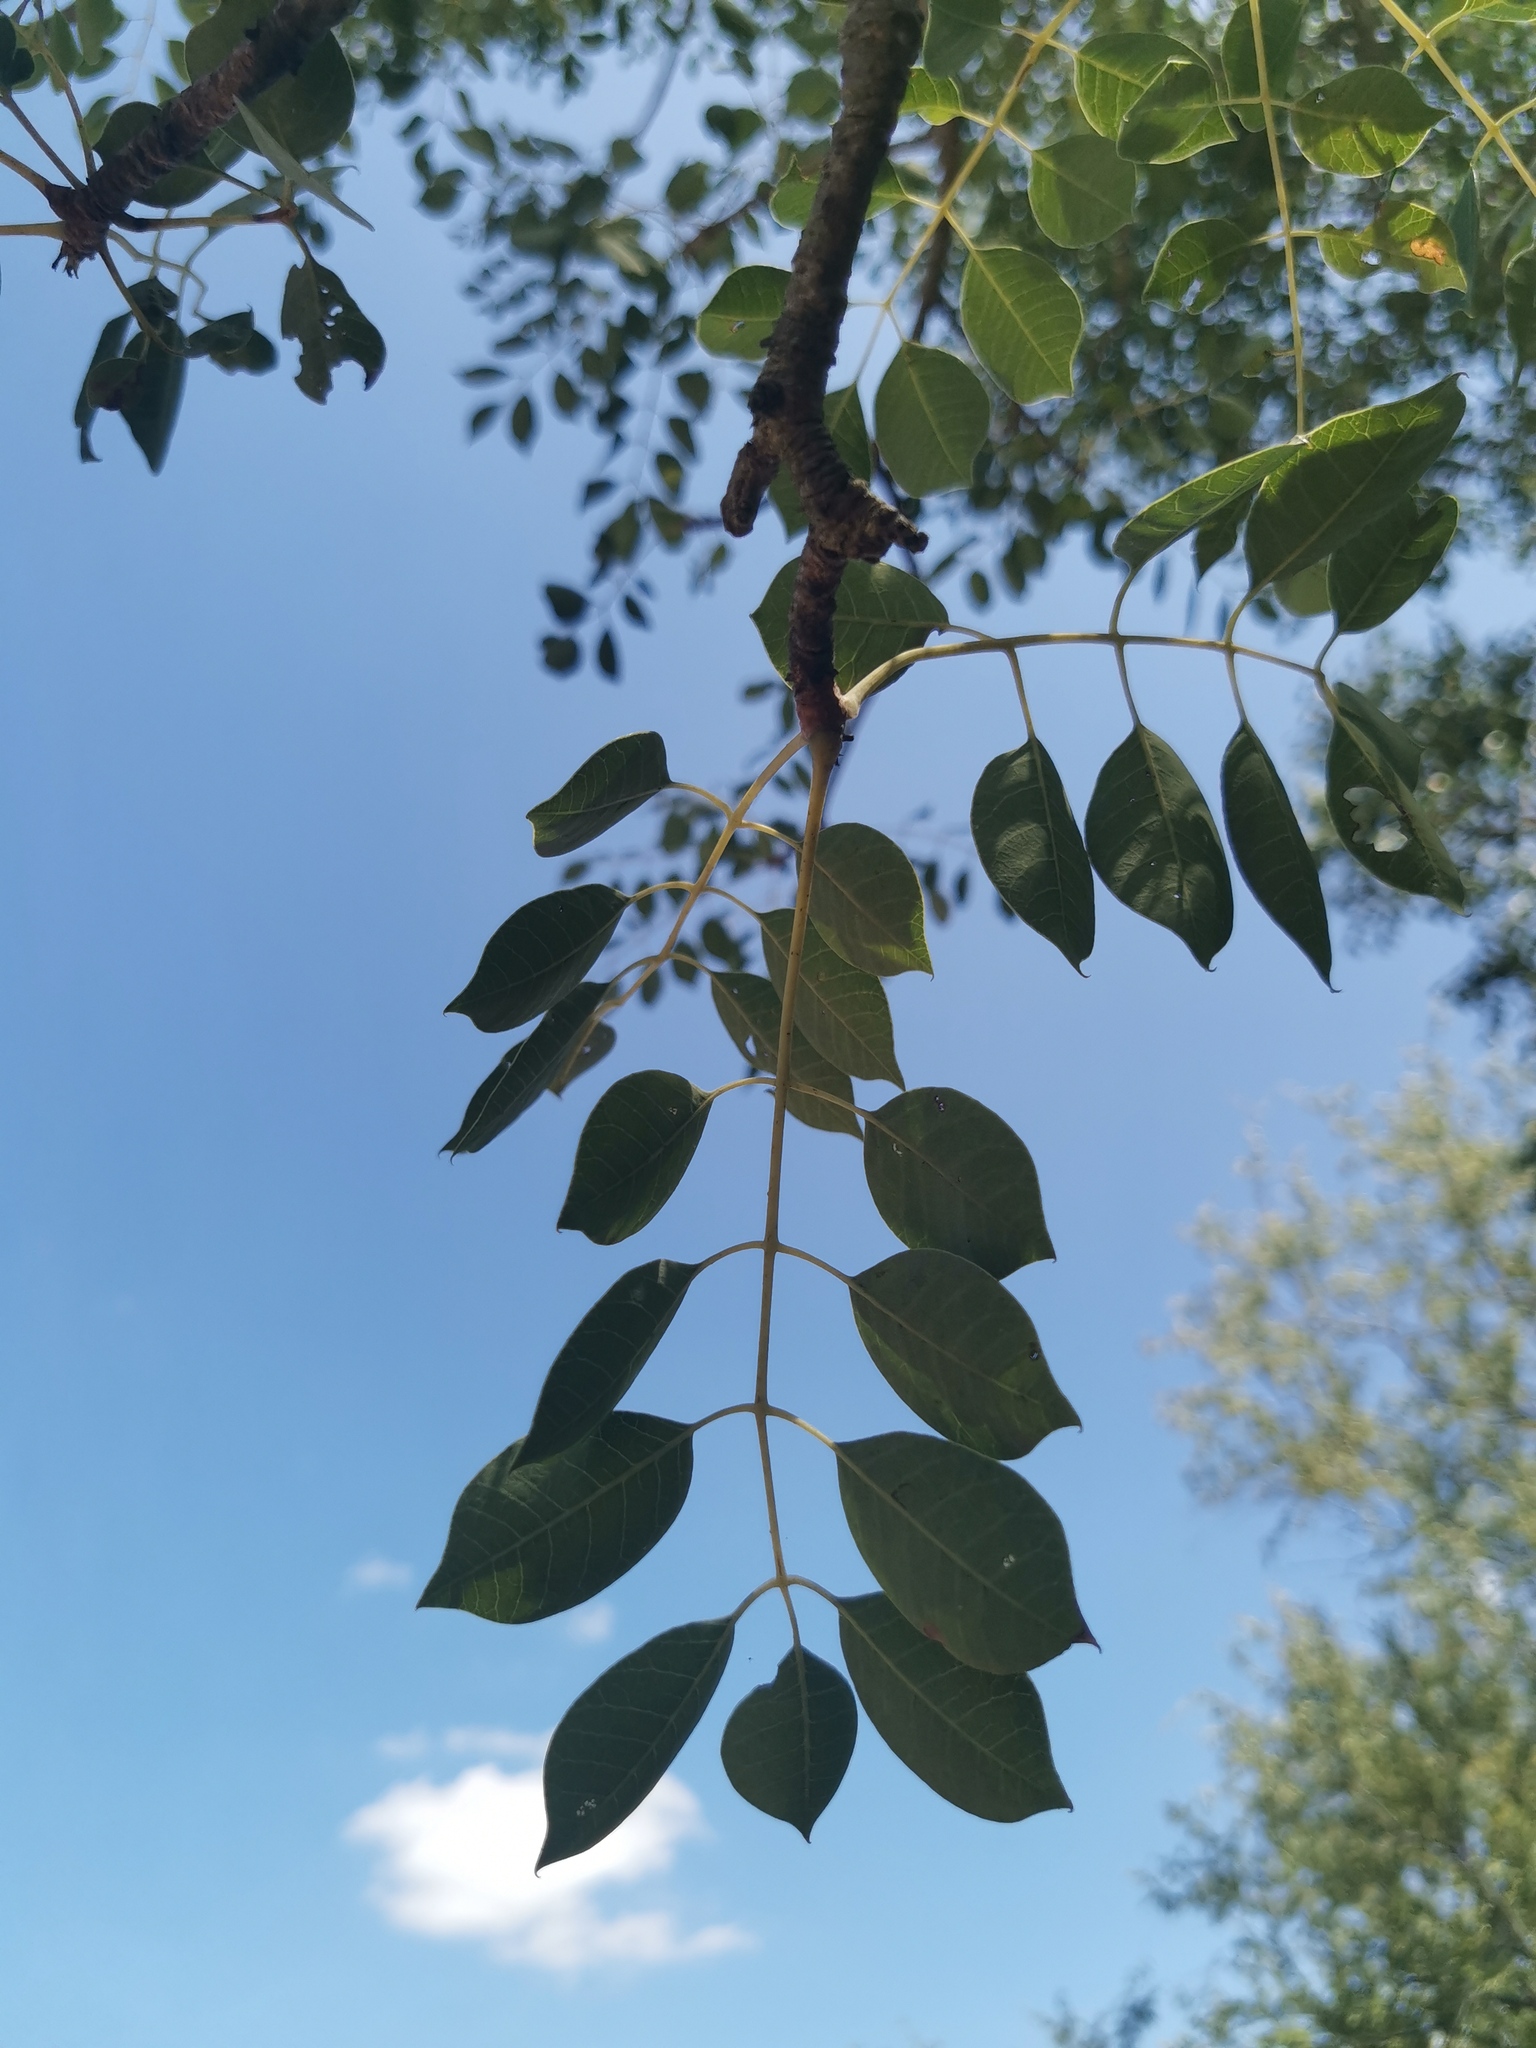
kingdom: Plantae
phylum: Tracheophyta
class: Magnoliopsida
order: Sapindales
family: Anacardiaceae
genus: Sclerocarya
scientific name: Sclerocarya birrea
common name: Marula
